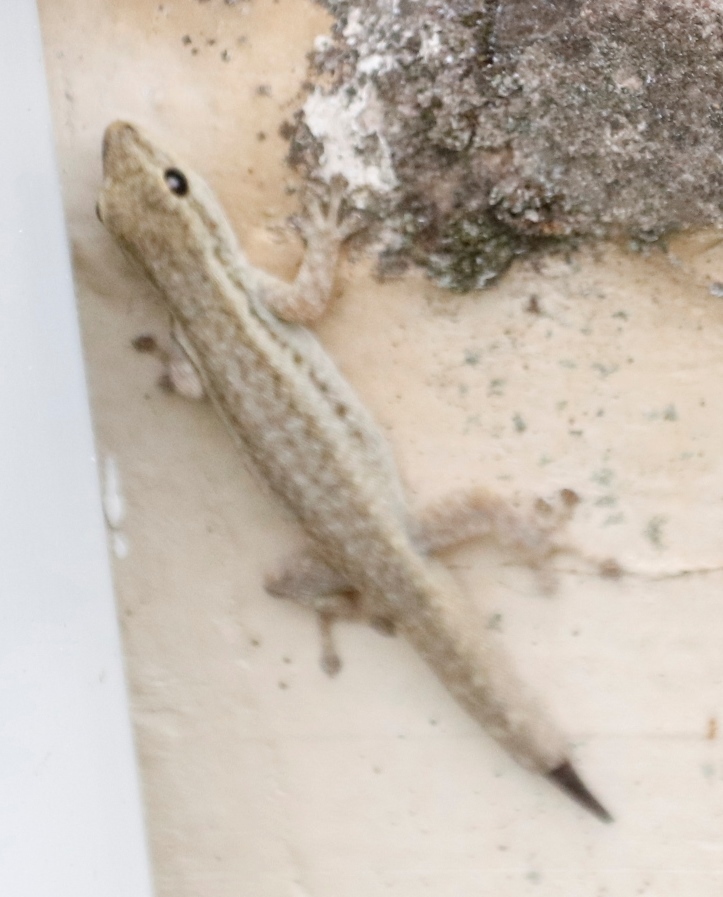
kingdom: Animalia
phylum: Chordata
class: Squamata
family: Gekkonidae
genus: Lygodactylus
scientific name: Lygodactylus capensis
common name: Cape dwarf gecko
